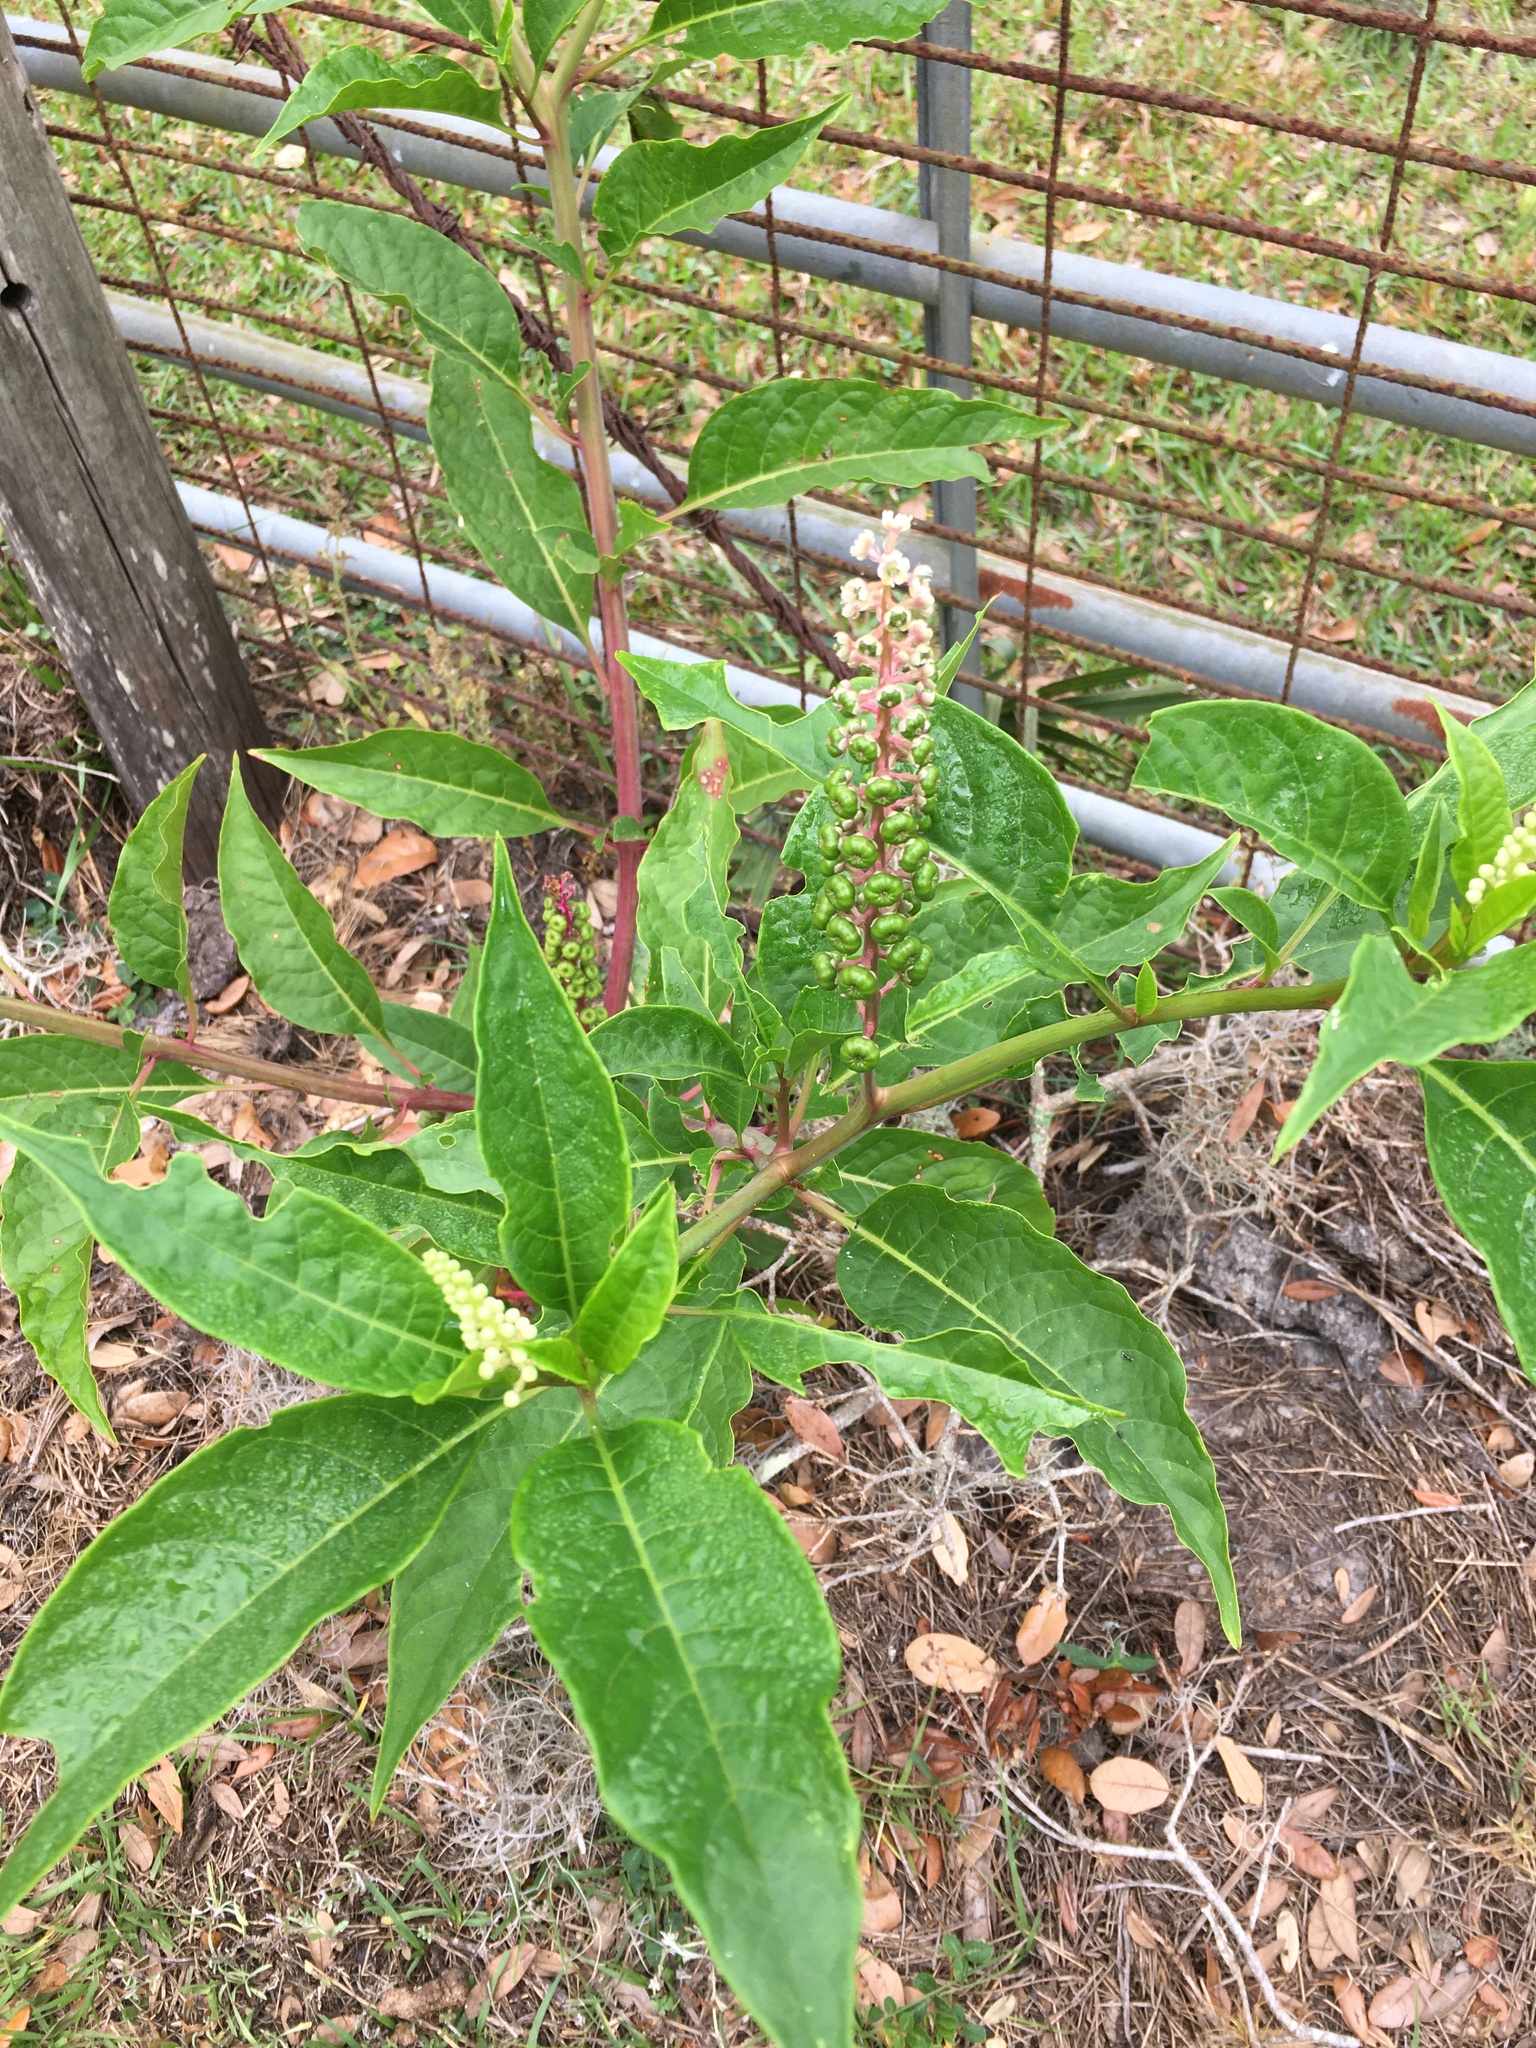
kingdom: Plantae
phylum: Tracheophyta
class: Magnoliopsida
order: Caryophyllales
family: Phytolaccaceae
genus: Phytolacca
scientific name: Phytolacca americana
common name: American pokeweed
